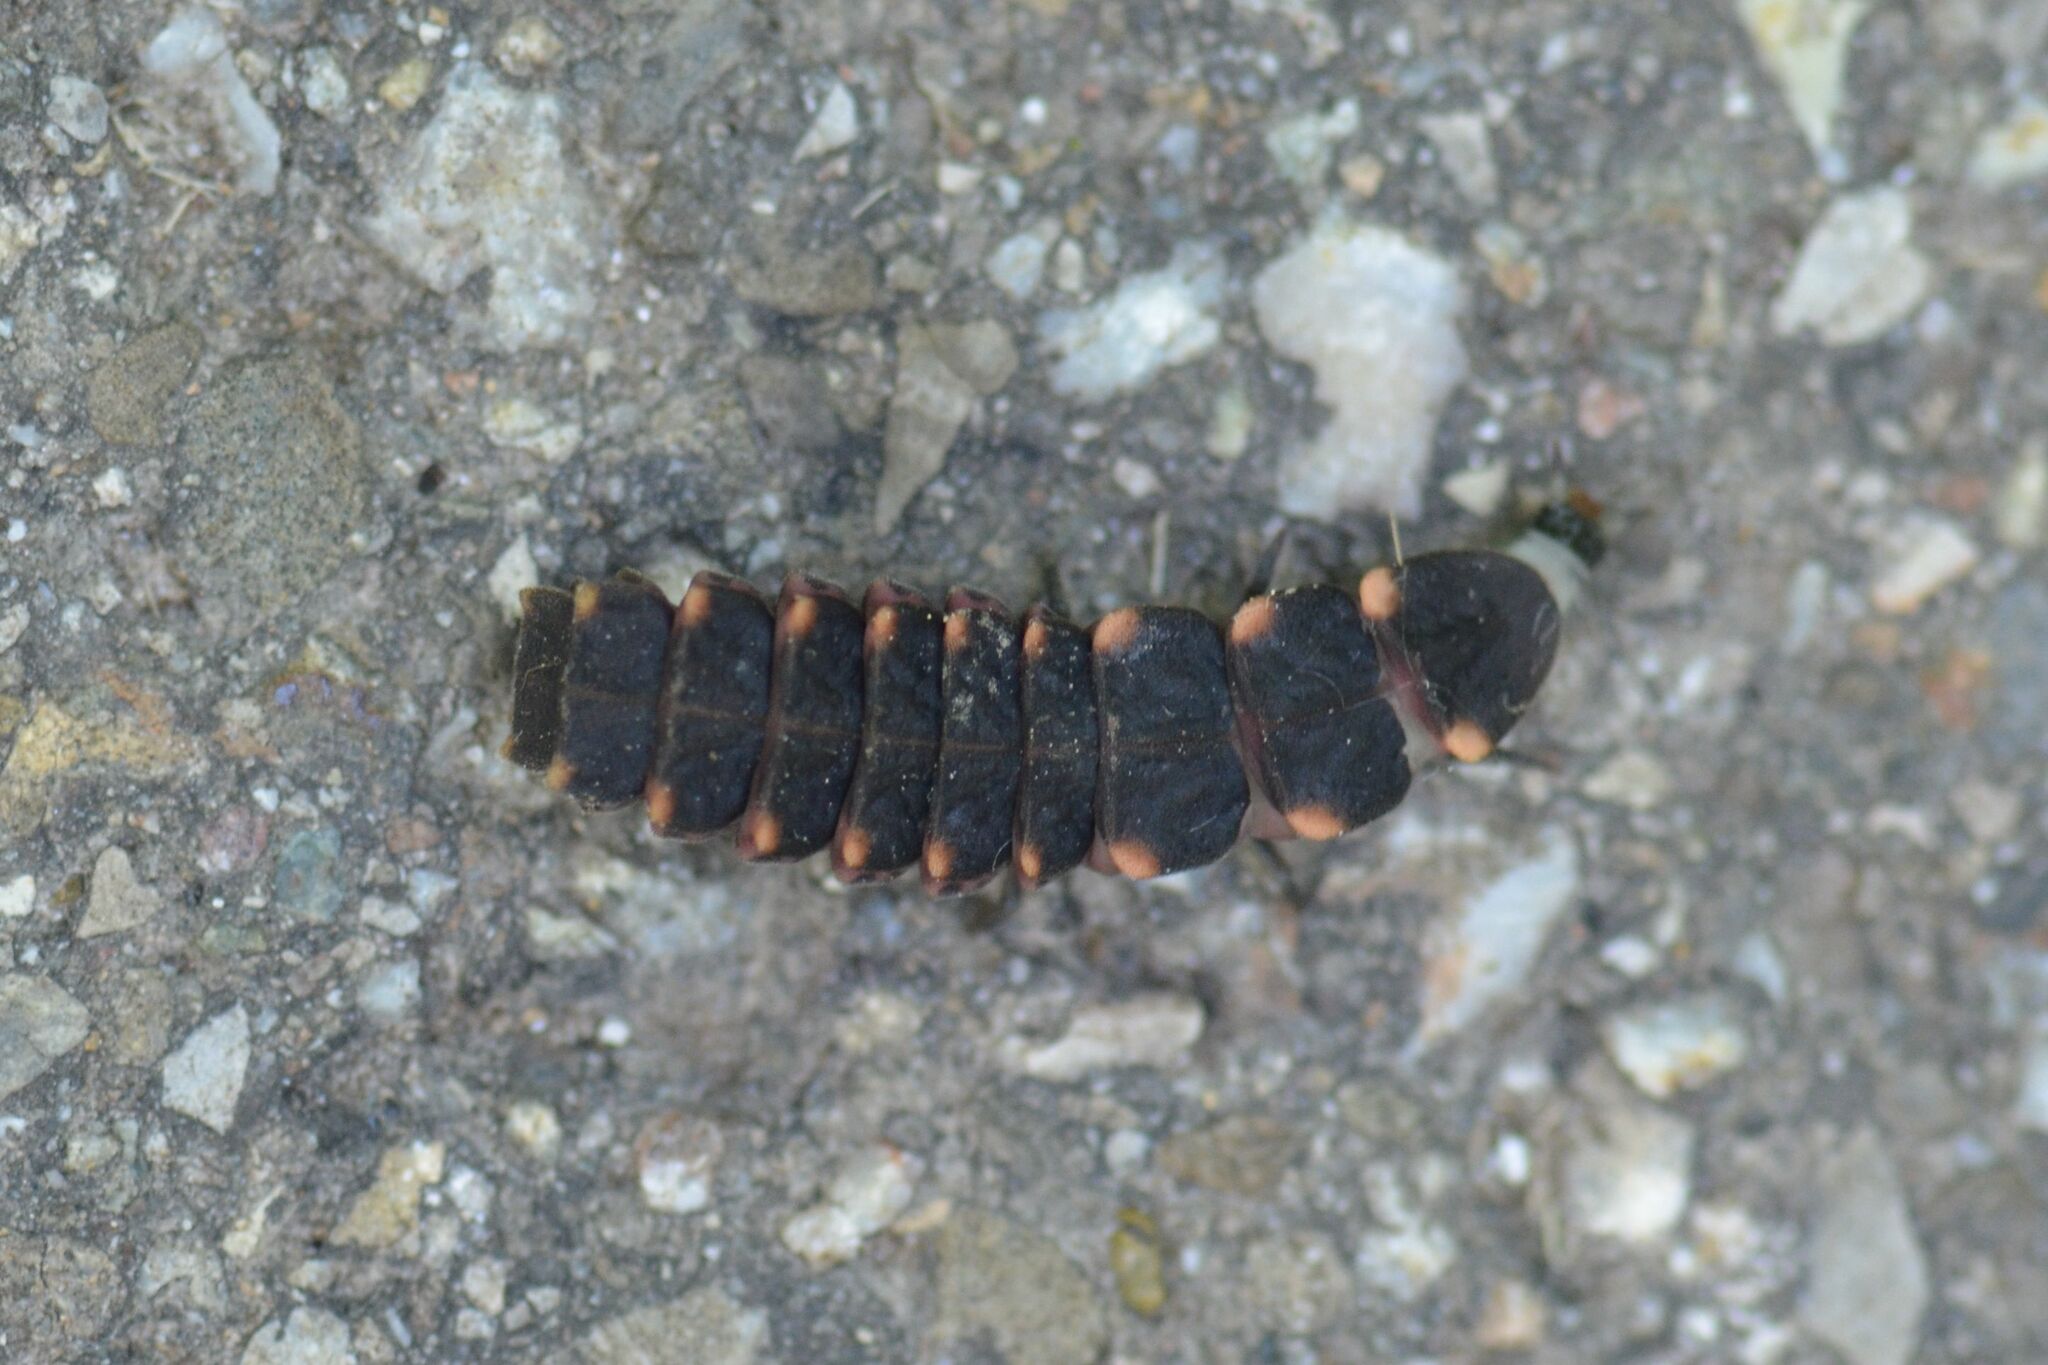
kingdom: Animalia
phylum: Arthropoda
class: Insecta
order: Coleoptera
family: Lampyridae
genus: Lampyris
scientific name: Lampyris noctiluca
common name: Glow-worm
